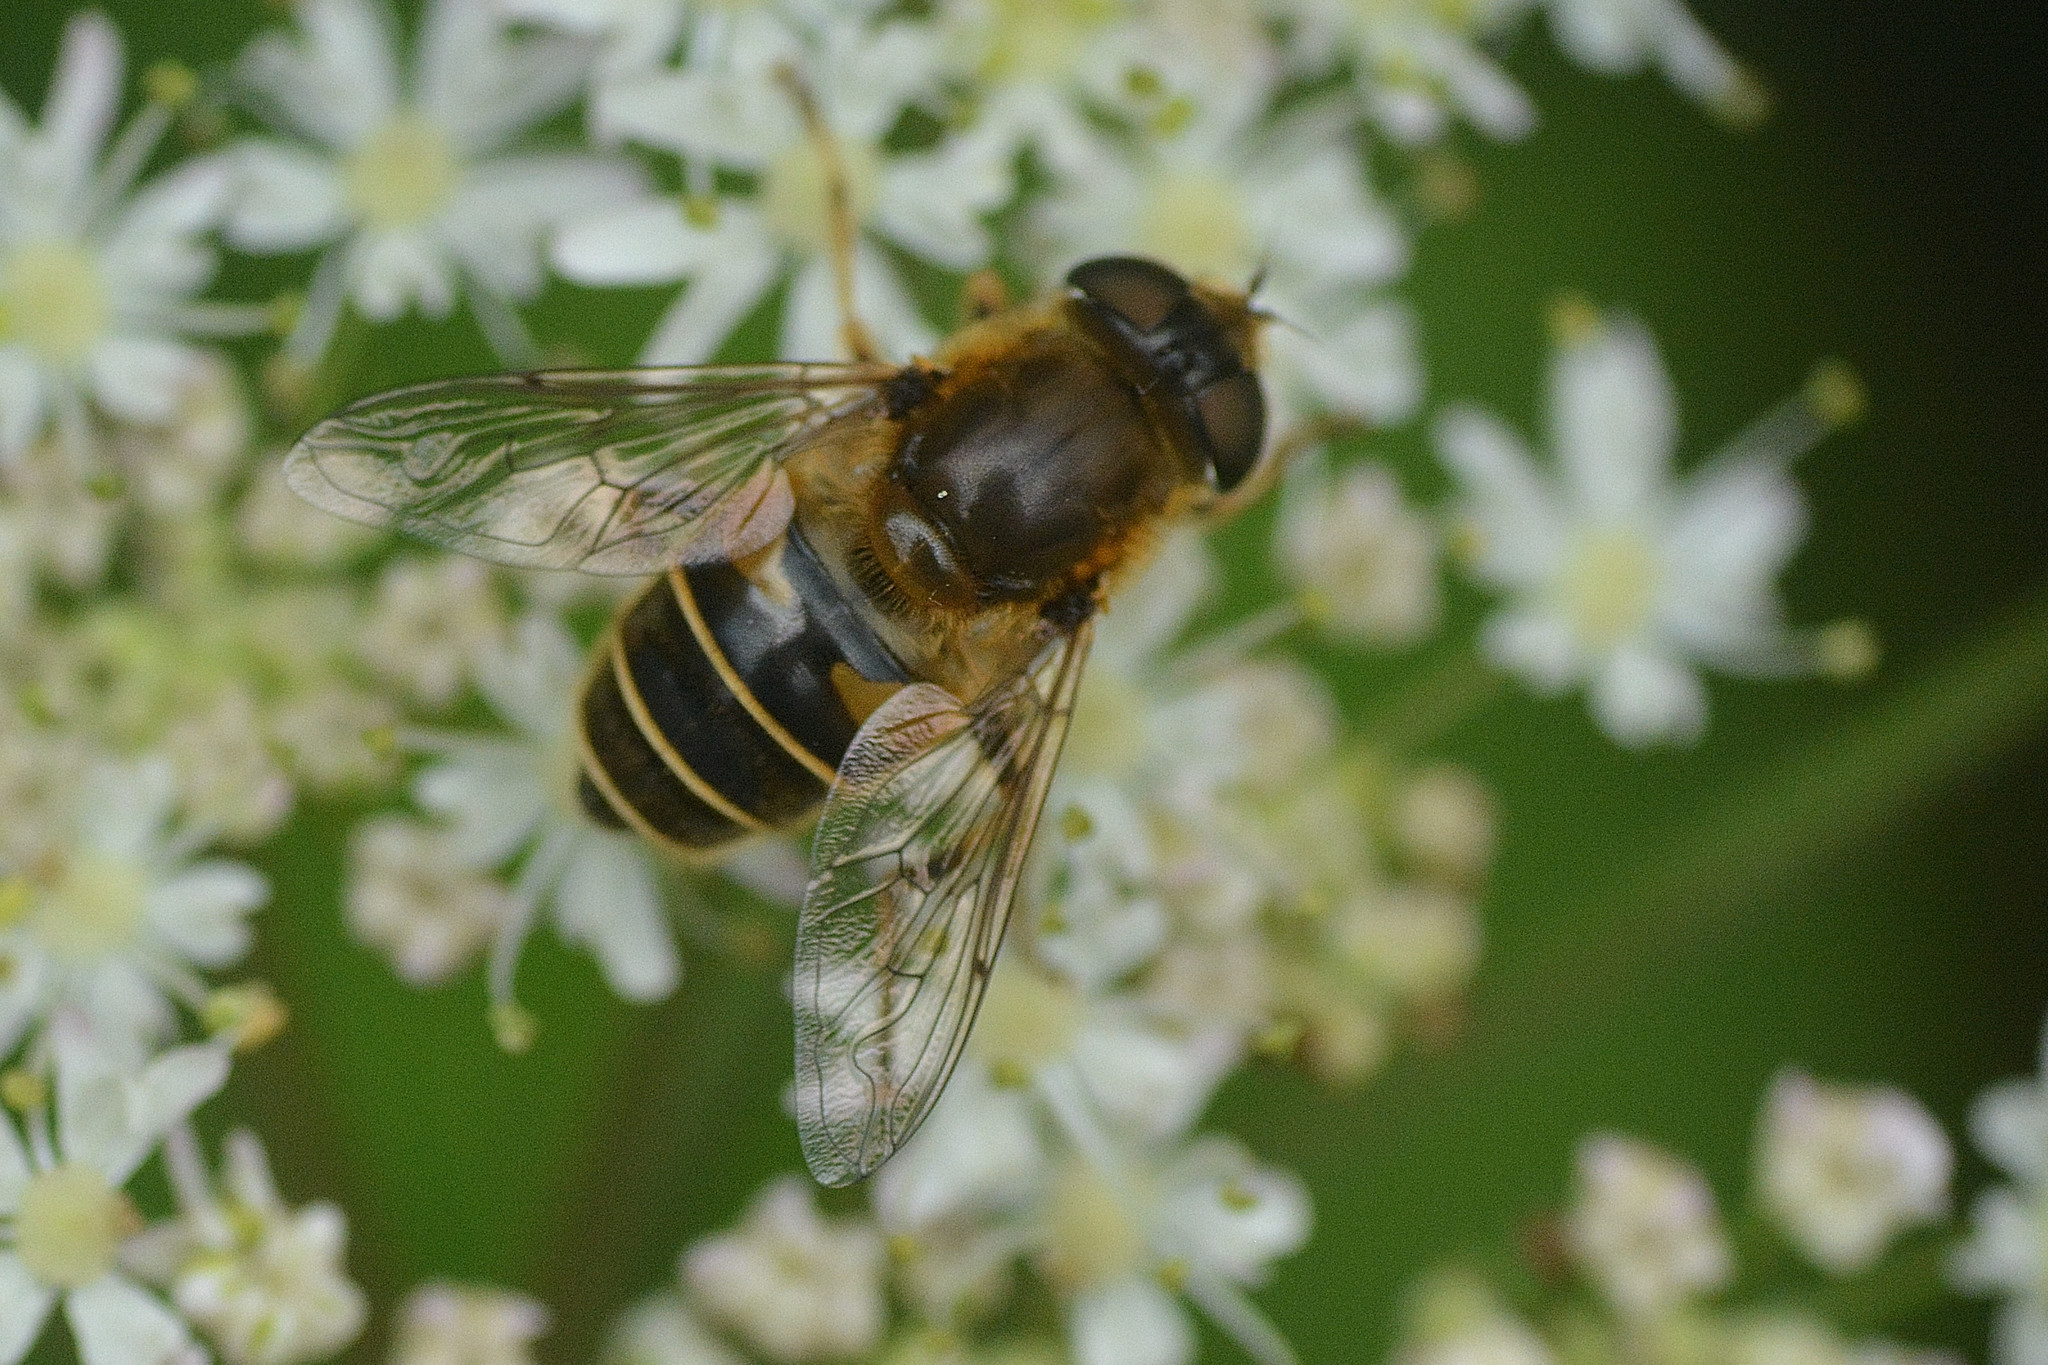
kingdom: Animalia
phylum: Arthropoda
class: Insecta
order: Diptera
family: Syrphidae
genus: Eristalis
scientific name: Eristalis nemorum
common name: Orange-spined drone fly
